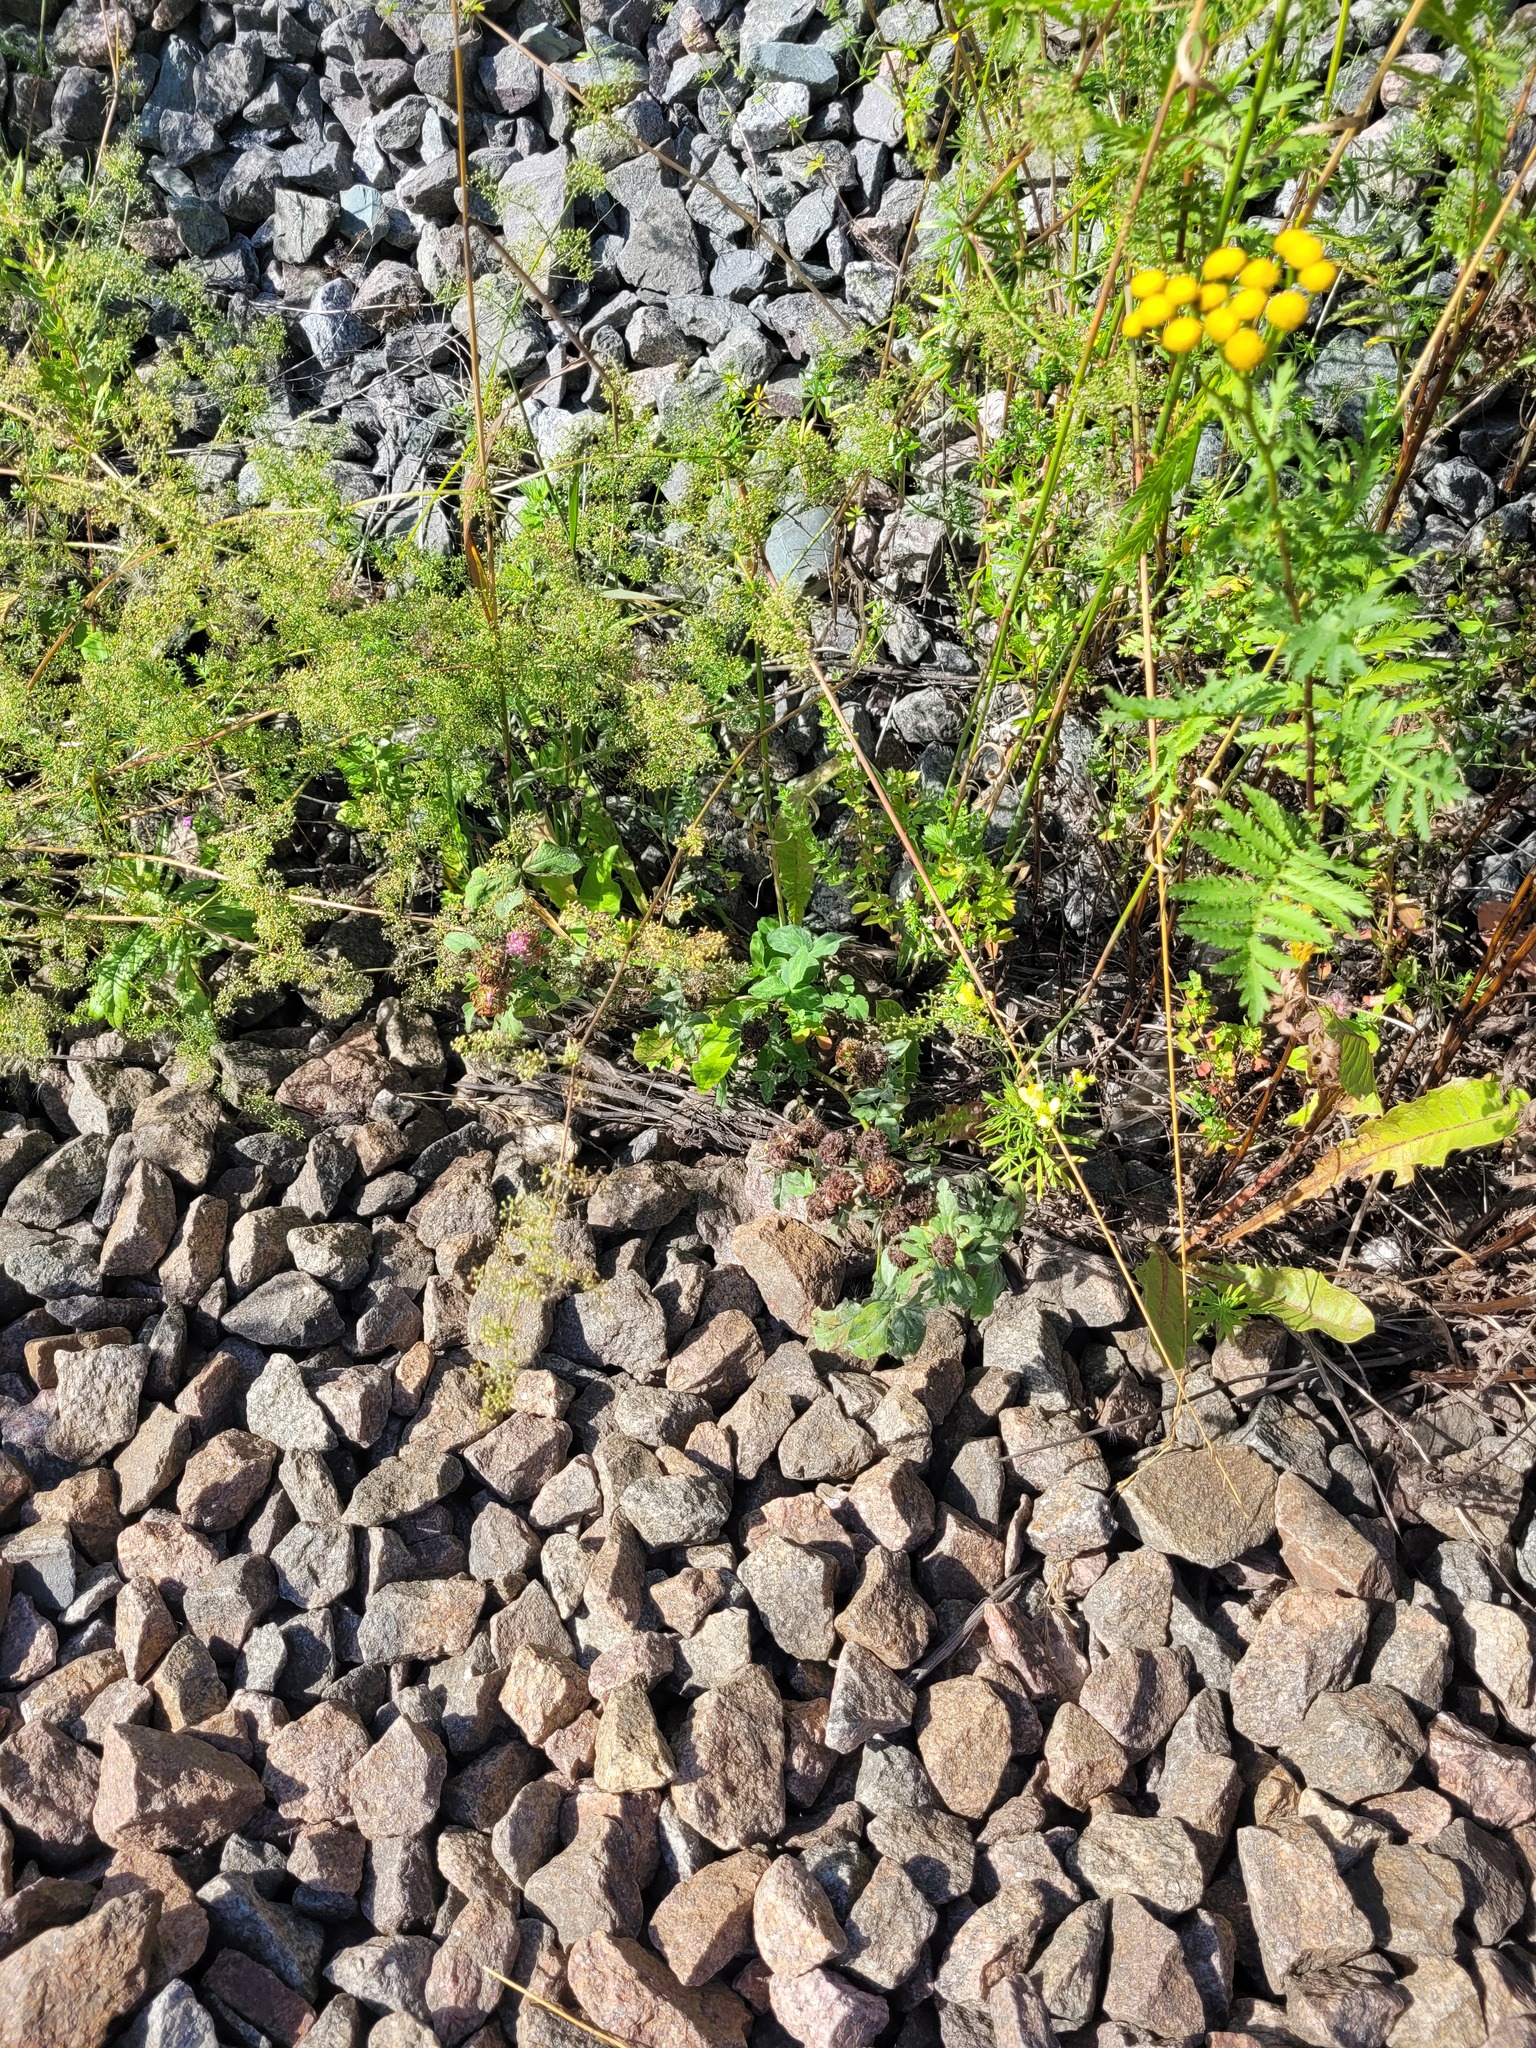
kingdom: Plantae
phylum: Tracheophyta
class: Magnoliopsida
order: Fabales
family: Fabaceae
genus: Trifolium
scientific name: Trifolium pratense
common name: Red clover
